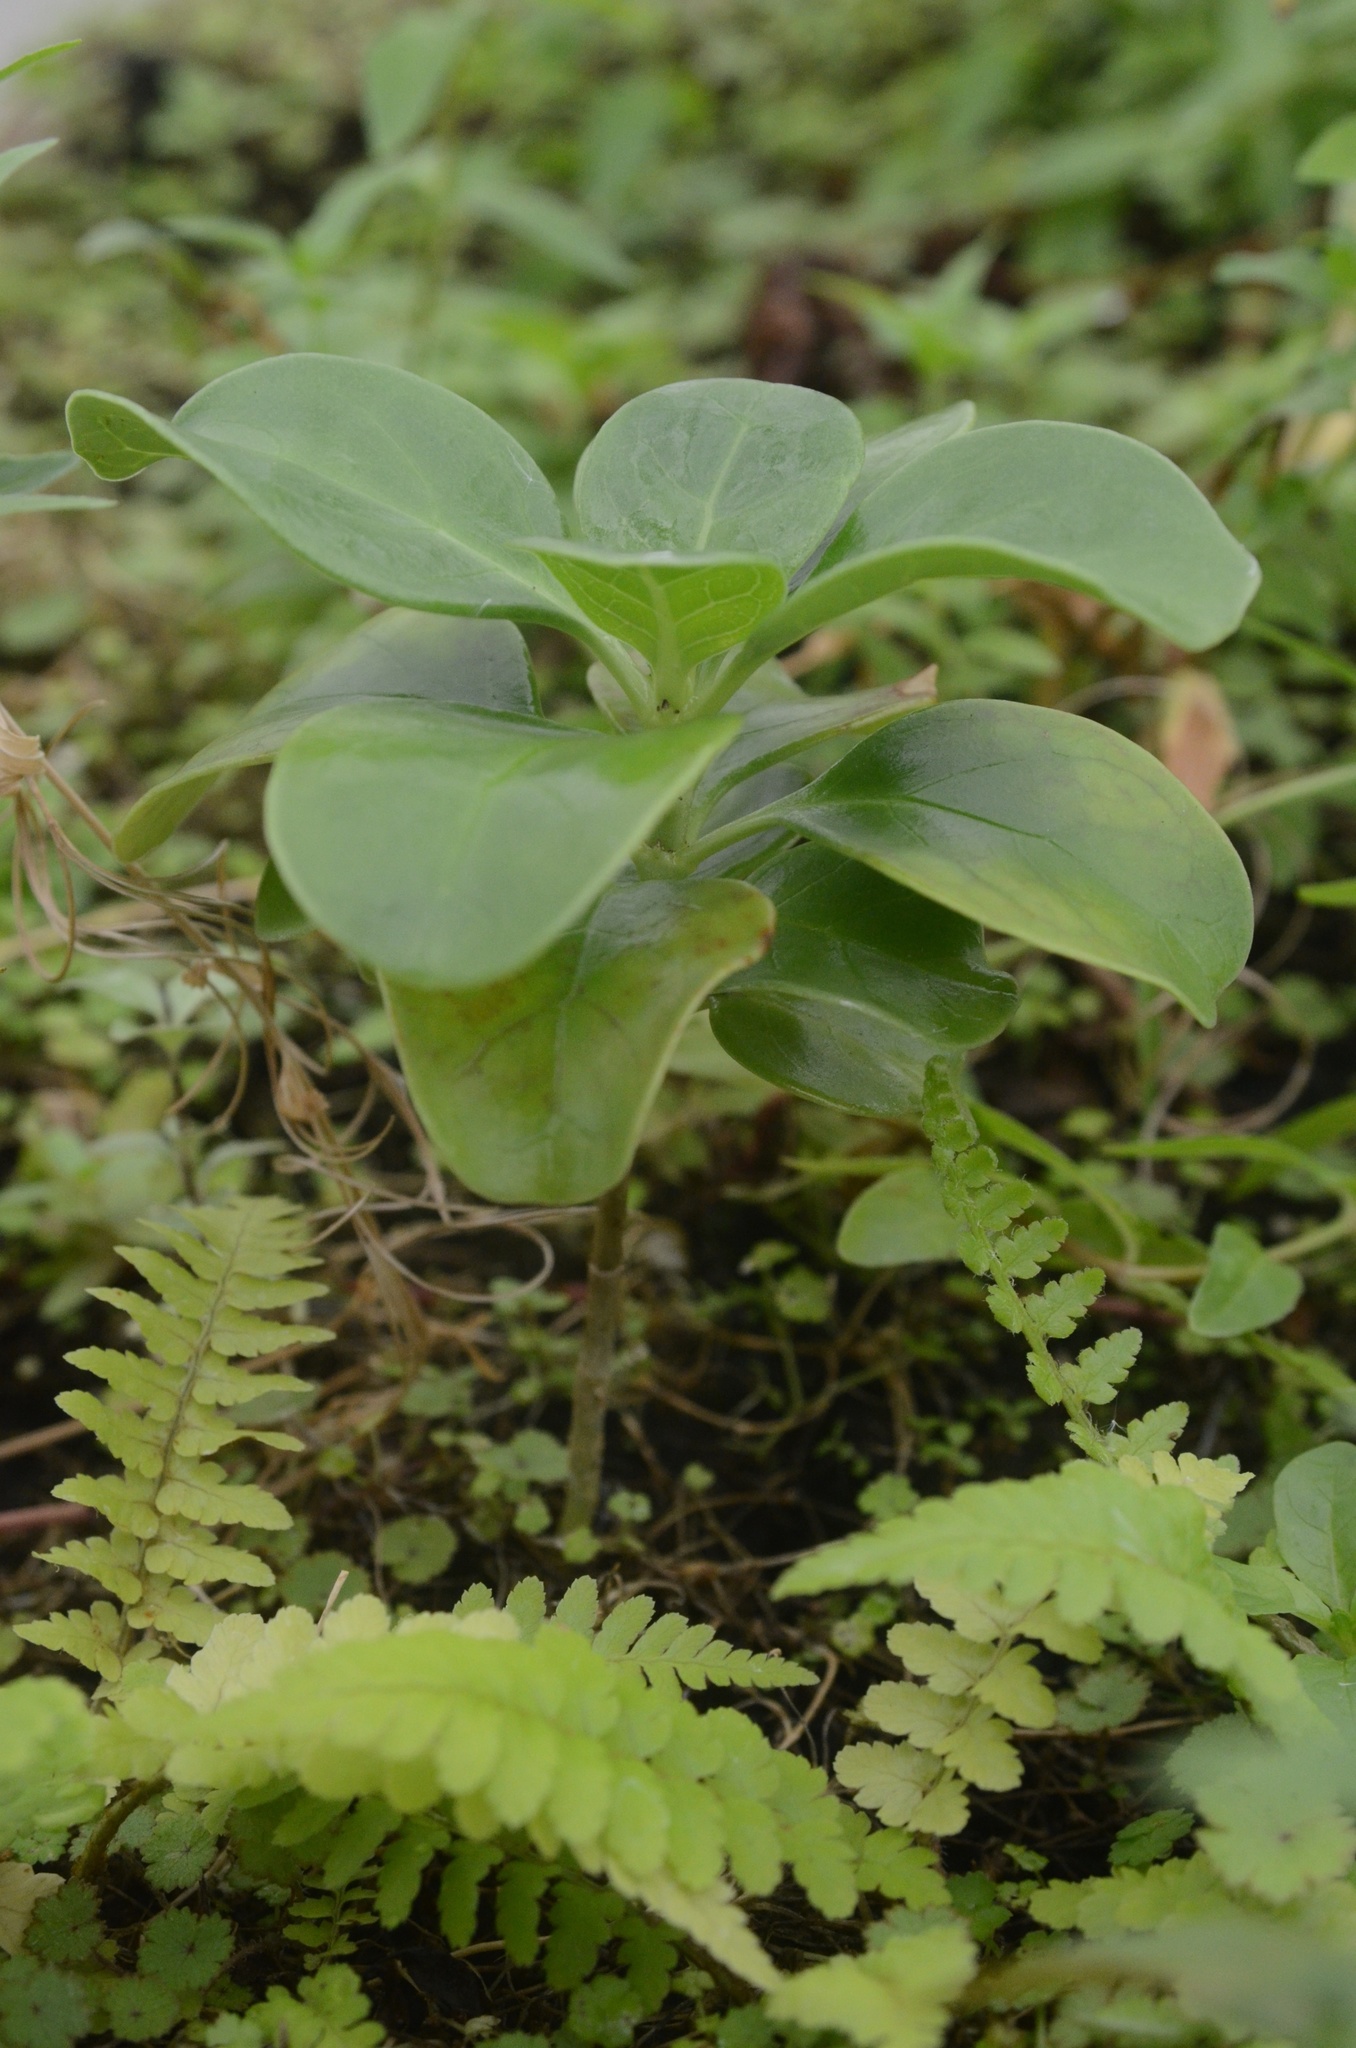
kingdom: Plantae
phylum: Tracheophyta
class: Magnoliopsida
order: Gentianales
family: Rubiaceae
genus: Coprosma
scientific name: Coprosma repens
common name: Tree bedstraw
